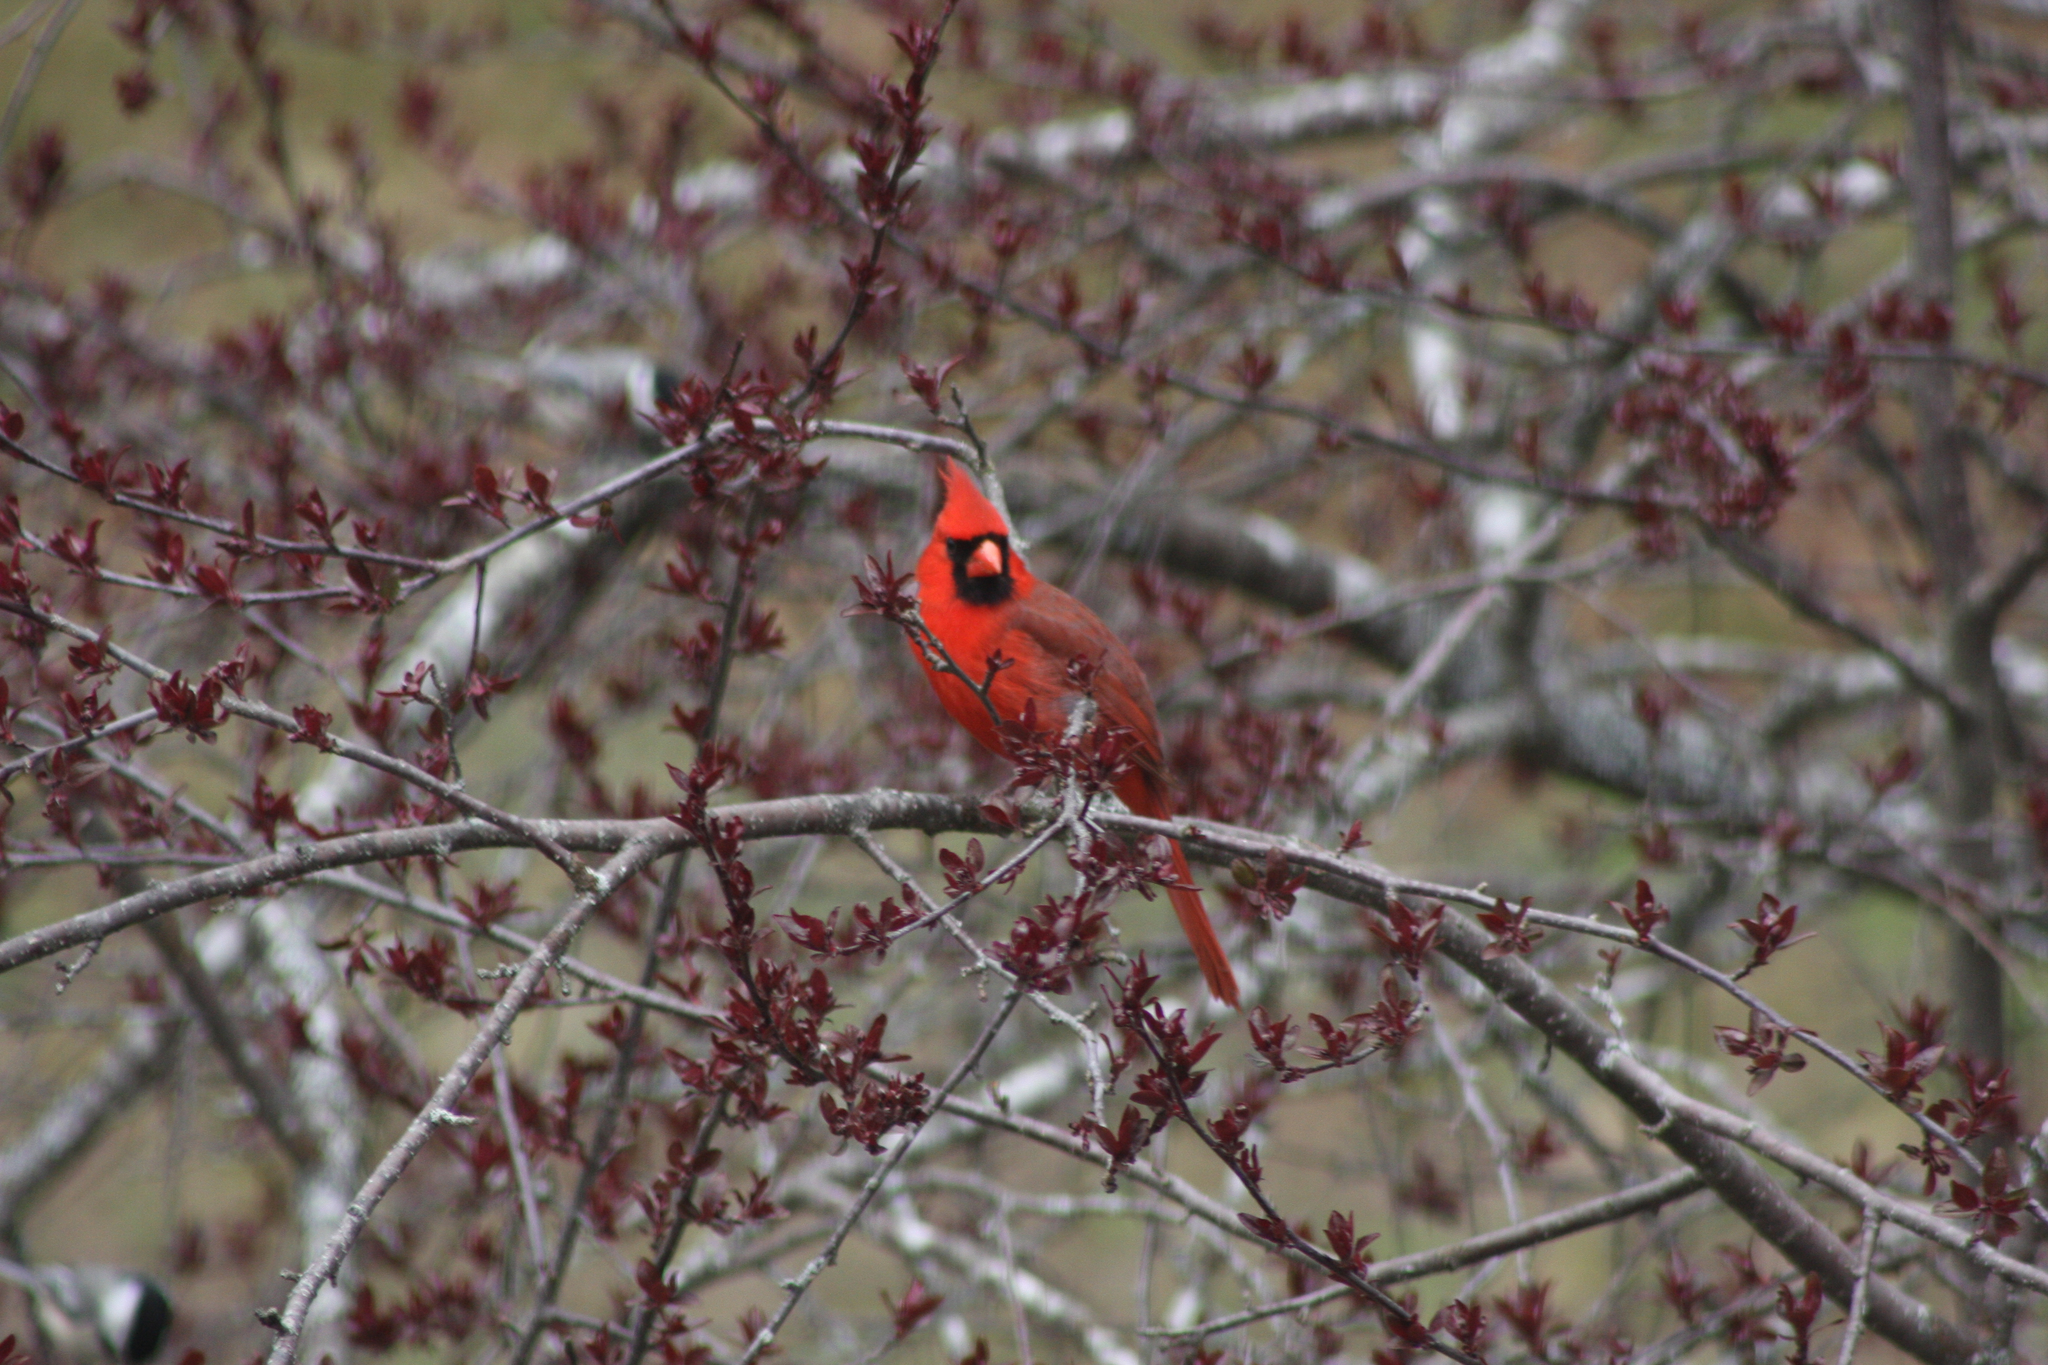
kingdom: Animalia
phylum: Chordata
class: Aves
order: Passeriformes
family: Cardinalidae
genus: Cardinalis
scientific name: Cardinalis cardinalis
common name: Northern cardinal
